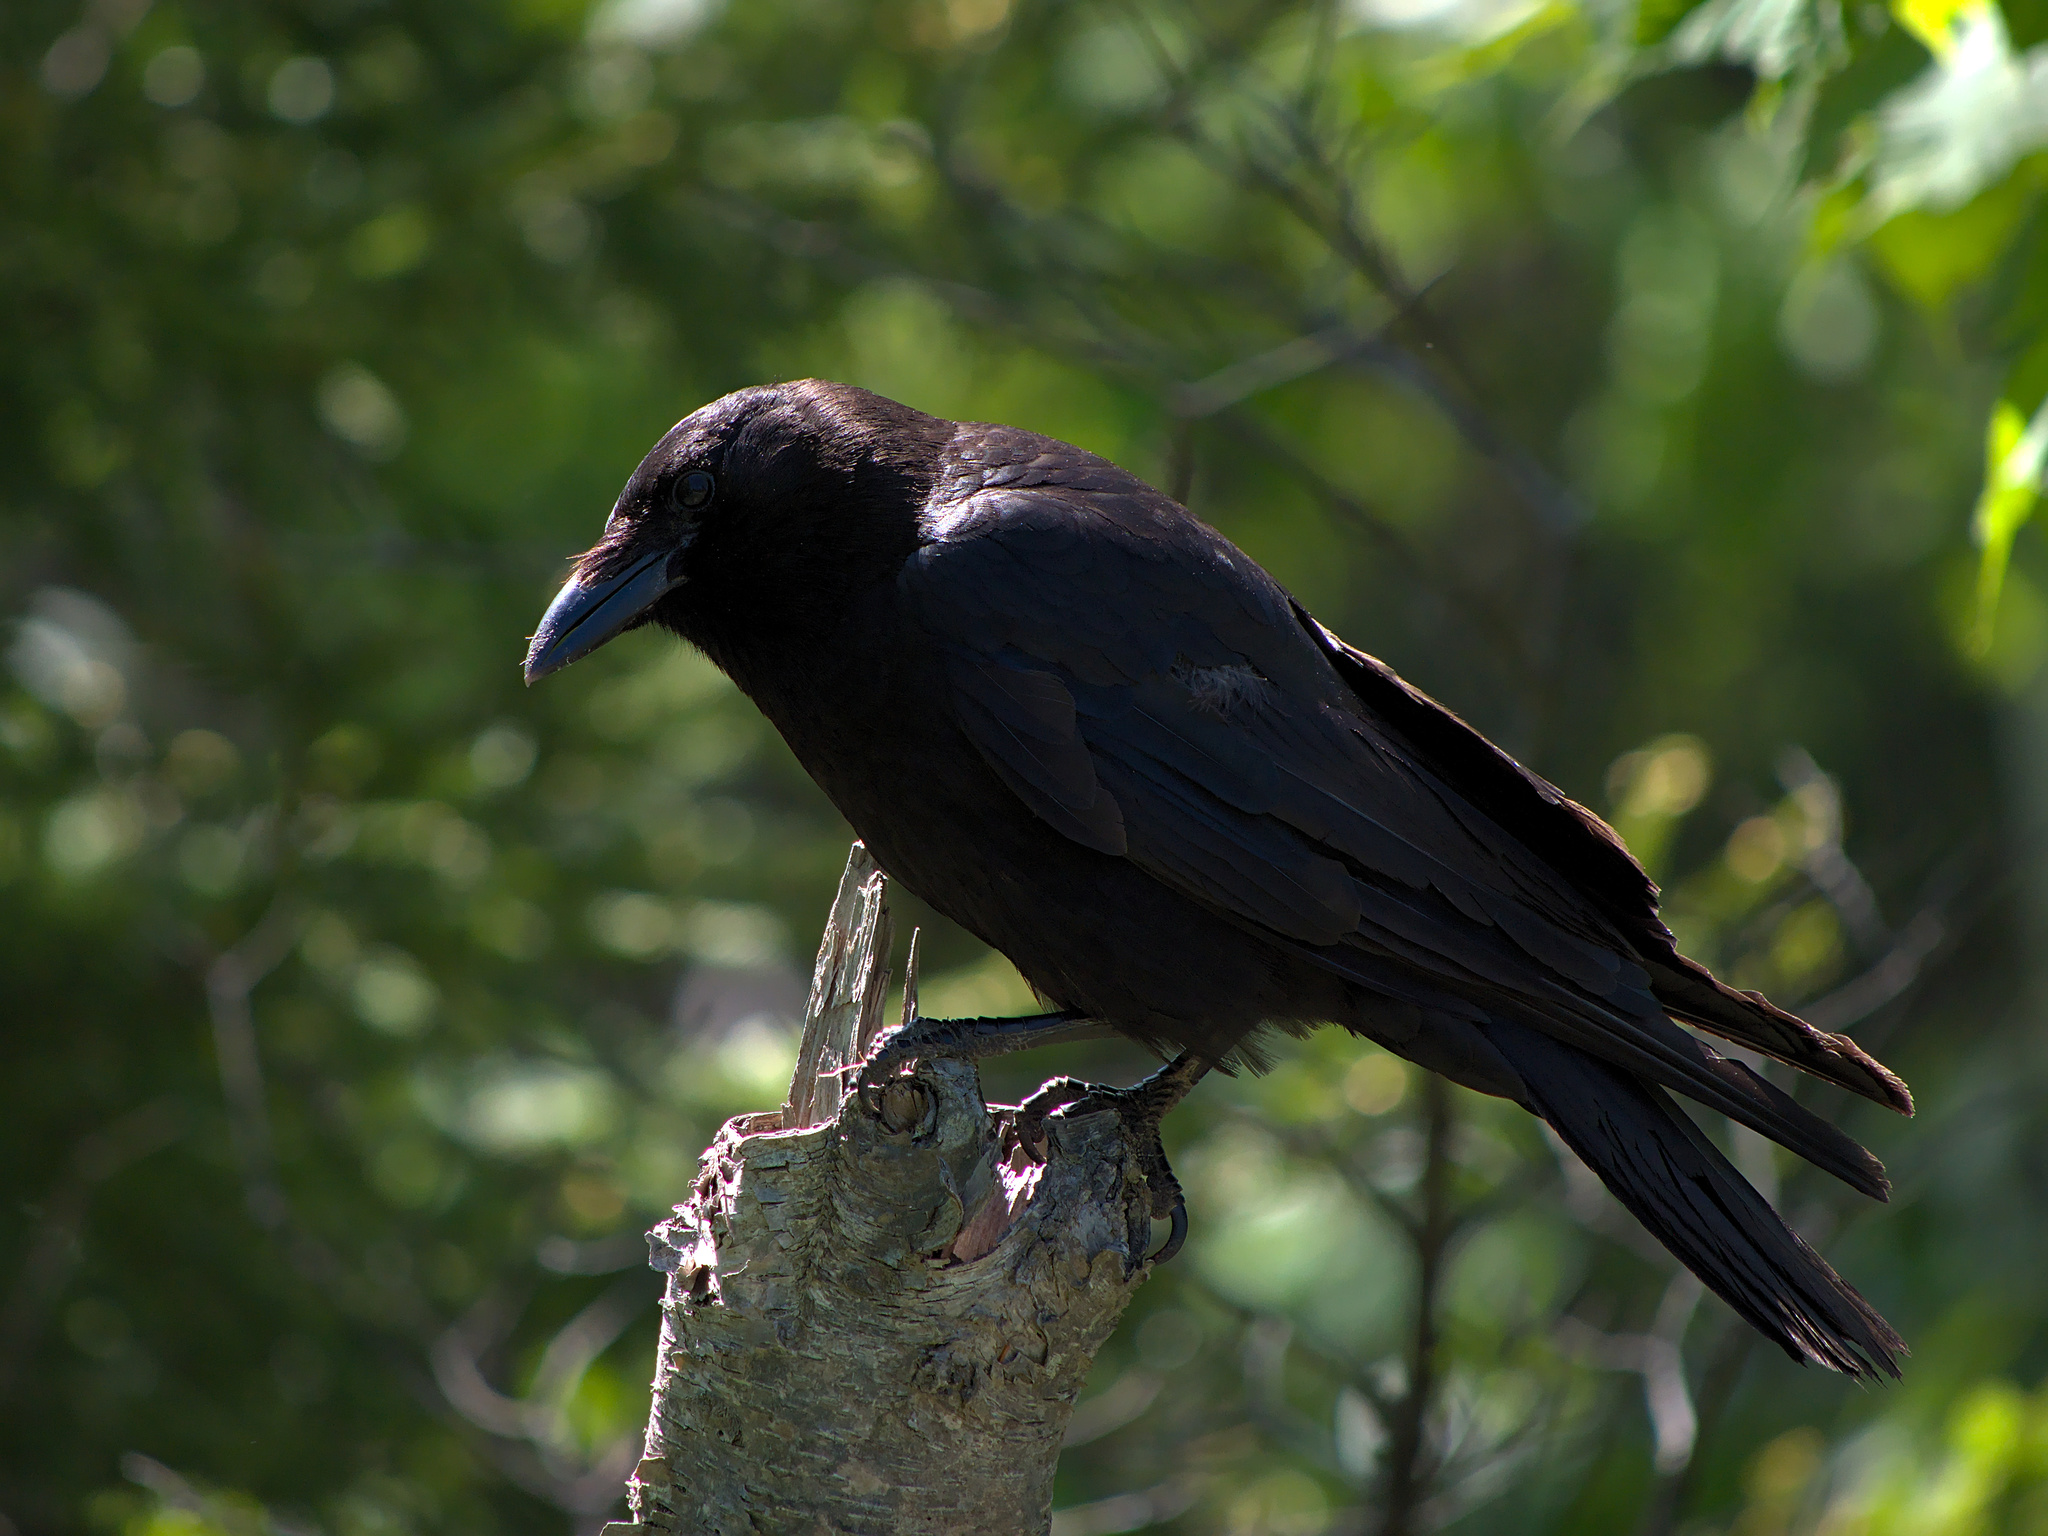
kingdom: Animalia
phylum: Chordata
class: Aves
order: Passeriformes
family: Corvidae
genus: Corvus
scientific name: Corvus brachyrhynchos
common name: American crow
